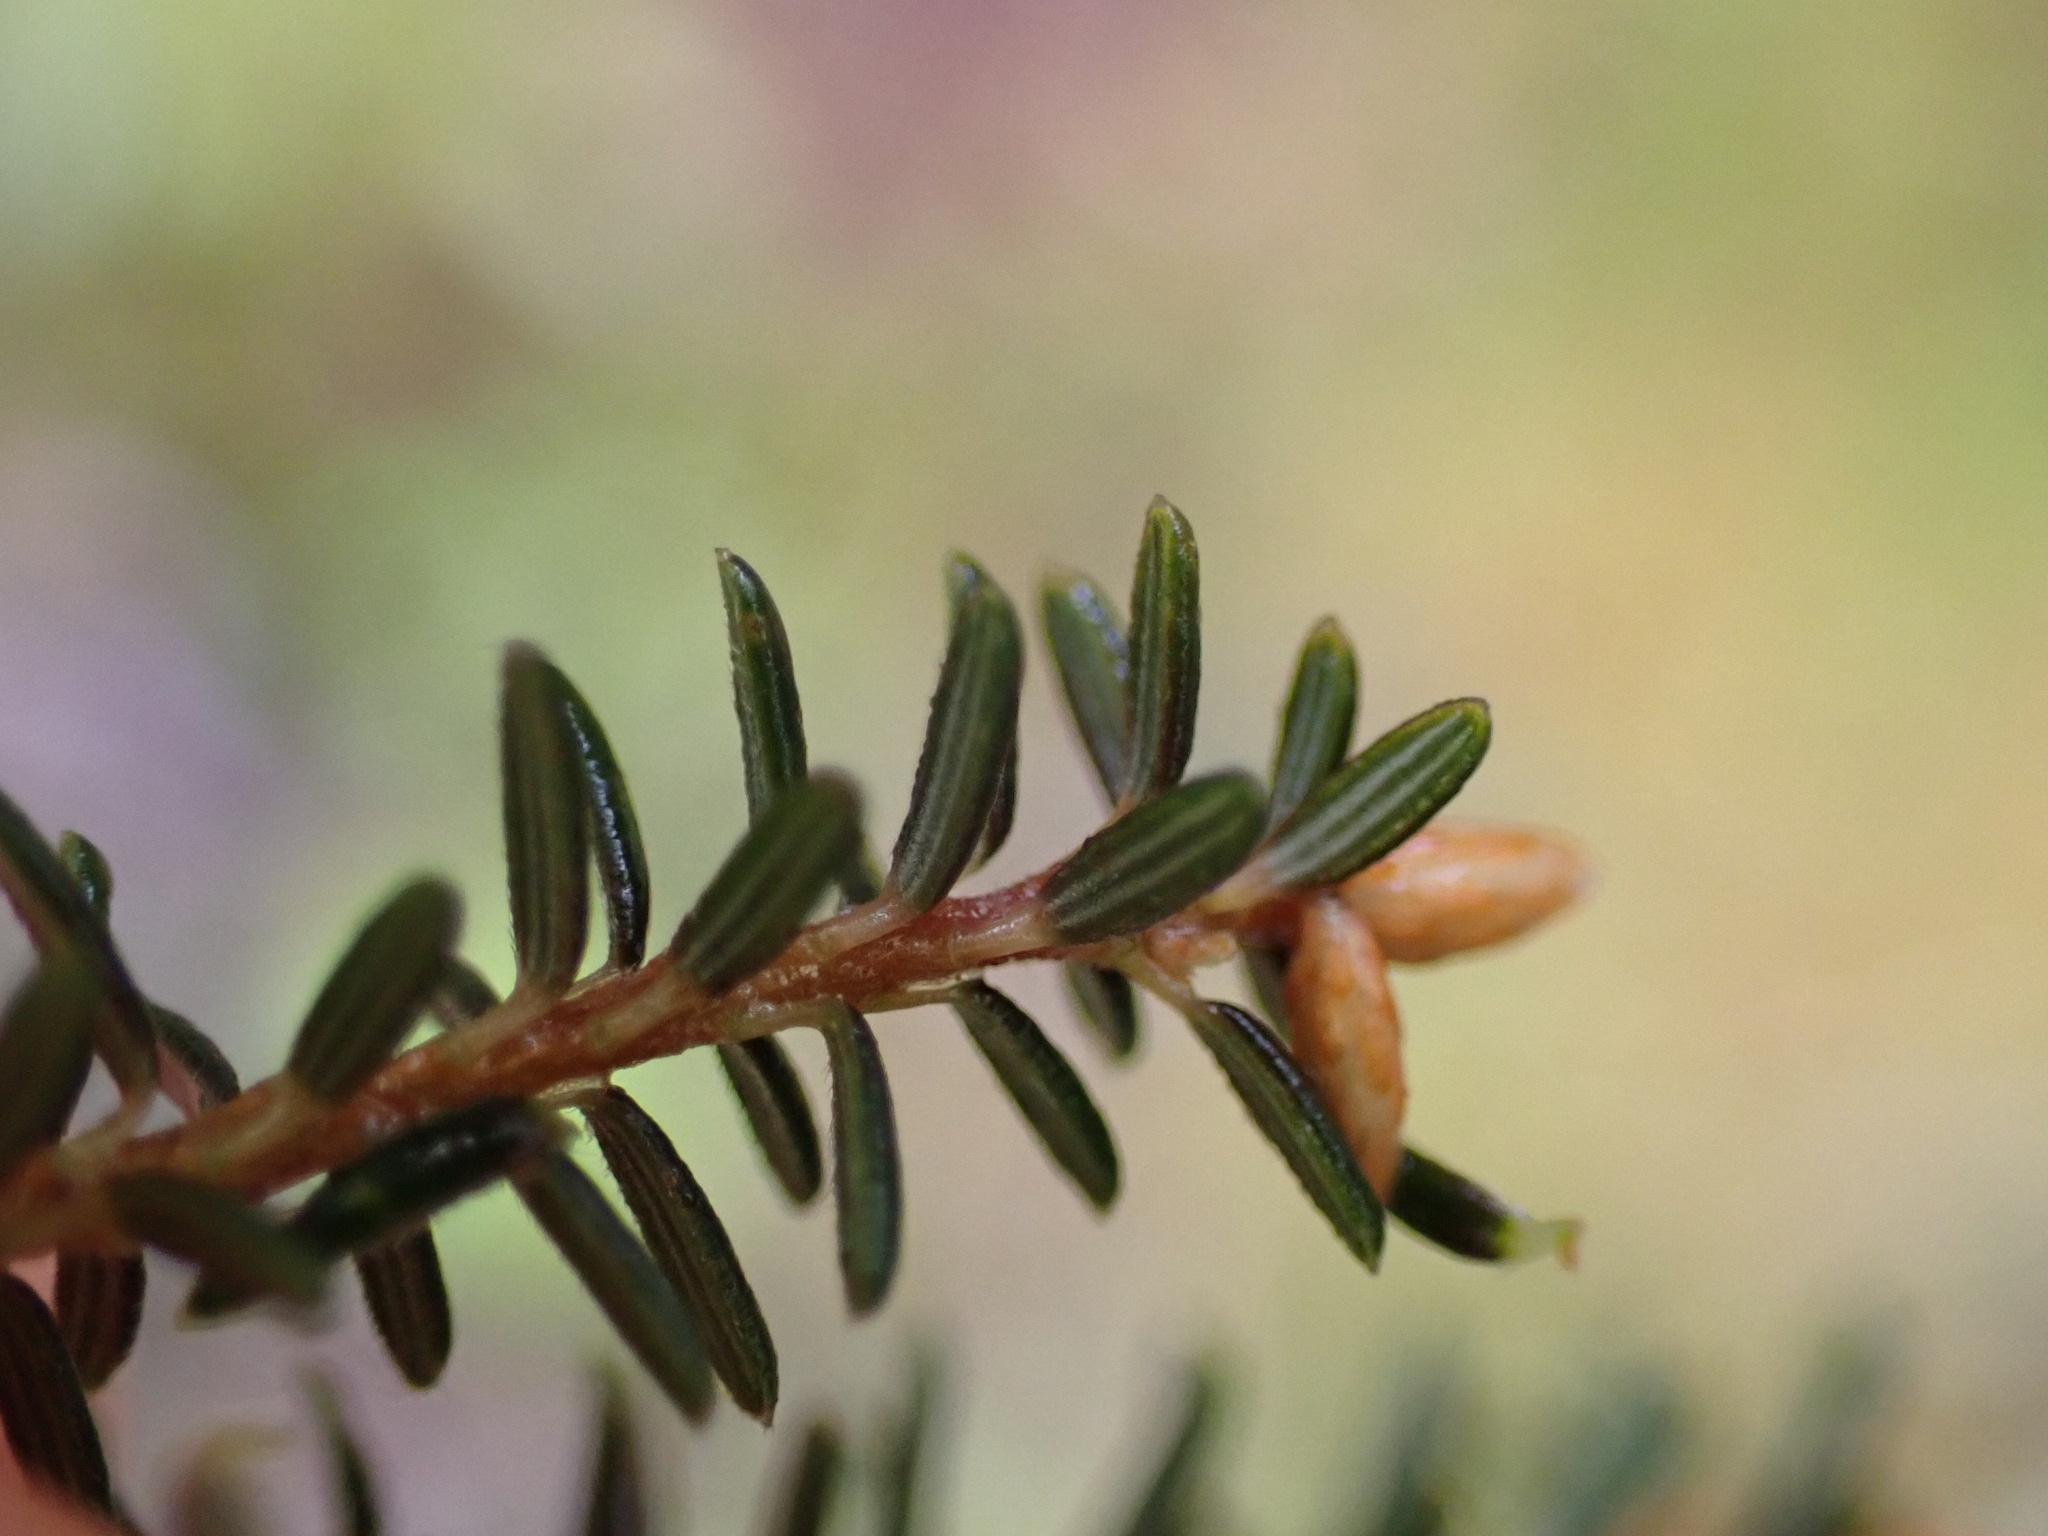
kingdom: Plantae
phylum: Tracheophyta
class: Magnoliopsida
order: Ericales
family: Ericaceae
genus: Androstoma
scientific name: Androstoma empetrifolia
